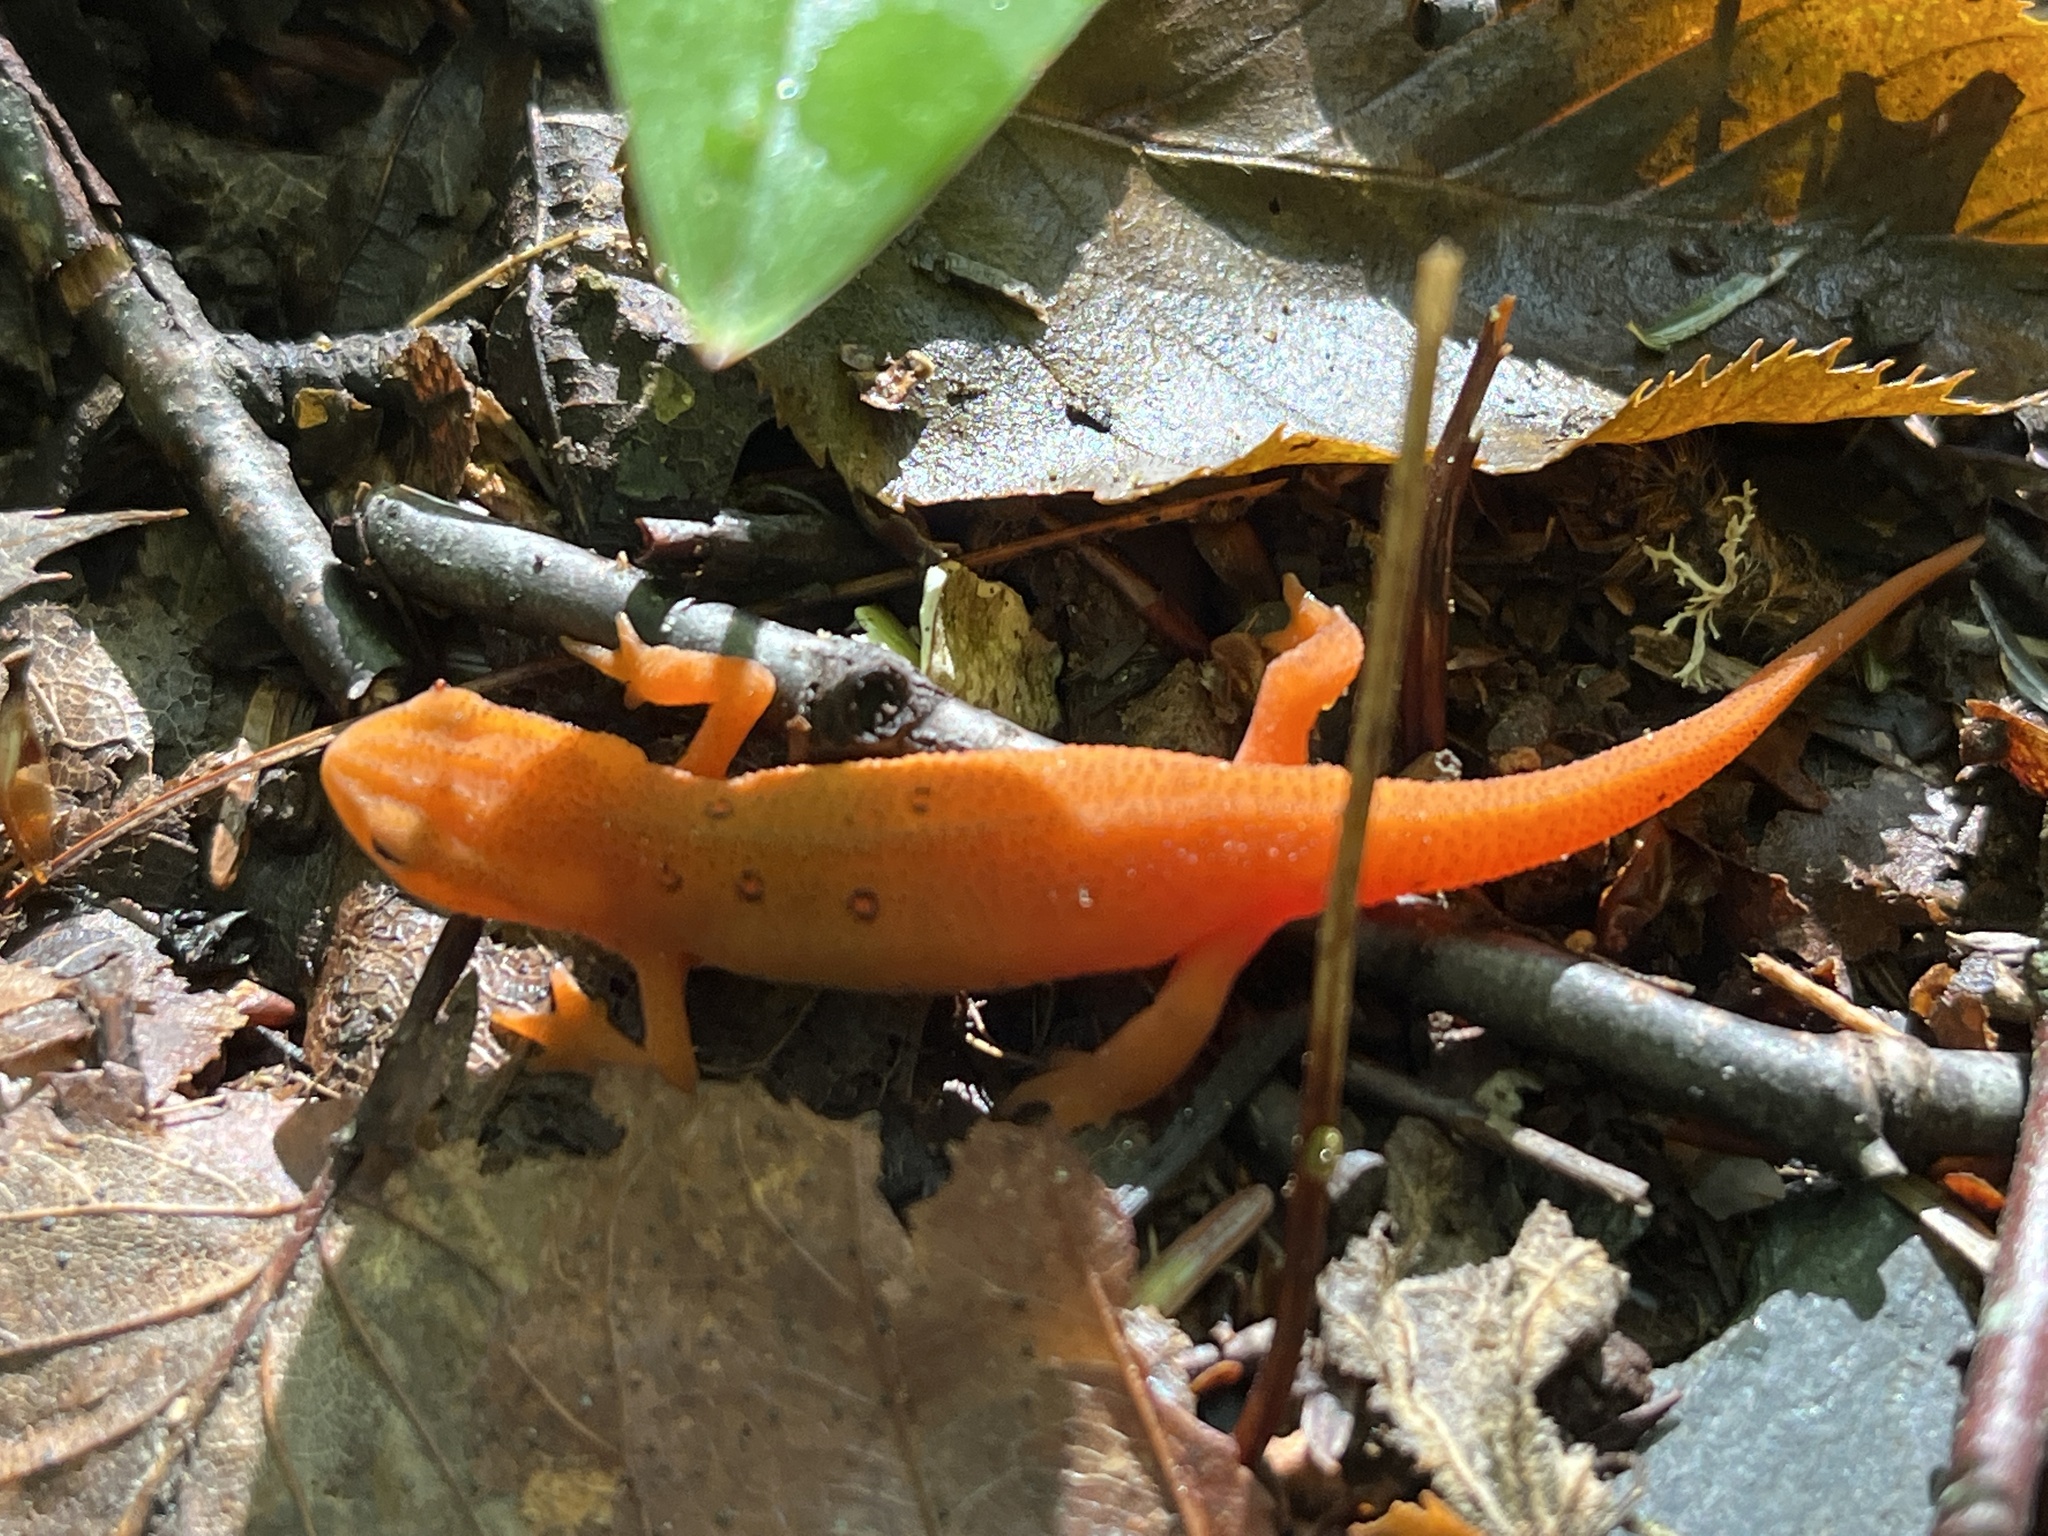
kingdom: Animalia
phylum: Chordata
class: Amphibia
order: Caudata
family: Salamandridae
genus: Notophthalmus
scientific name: Notophthalmus viridescens
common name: Eastern newt
